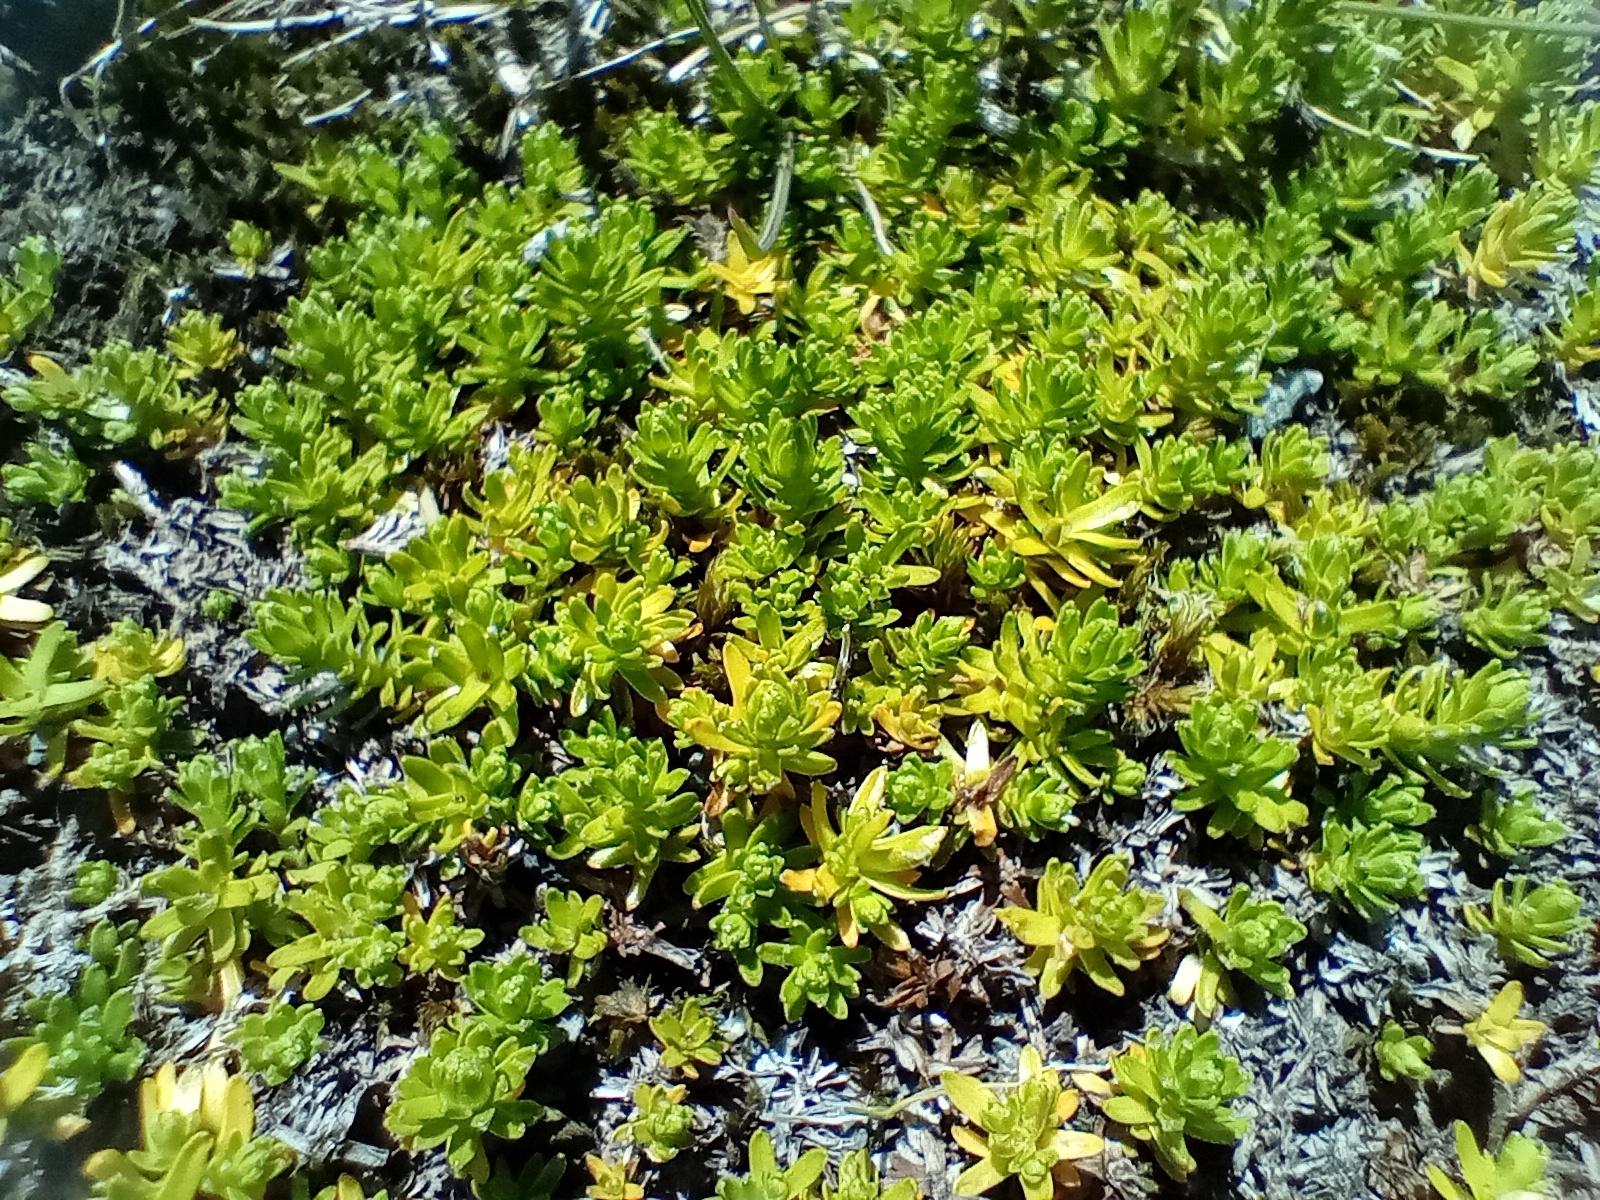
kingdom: Plantae
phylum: Tracheophyta
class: Magnoliopsida
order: Asterales
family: Asteraceae
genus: Raoulia
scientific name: Raoulia glabra
